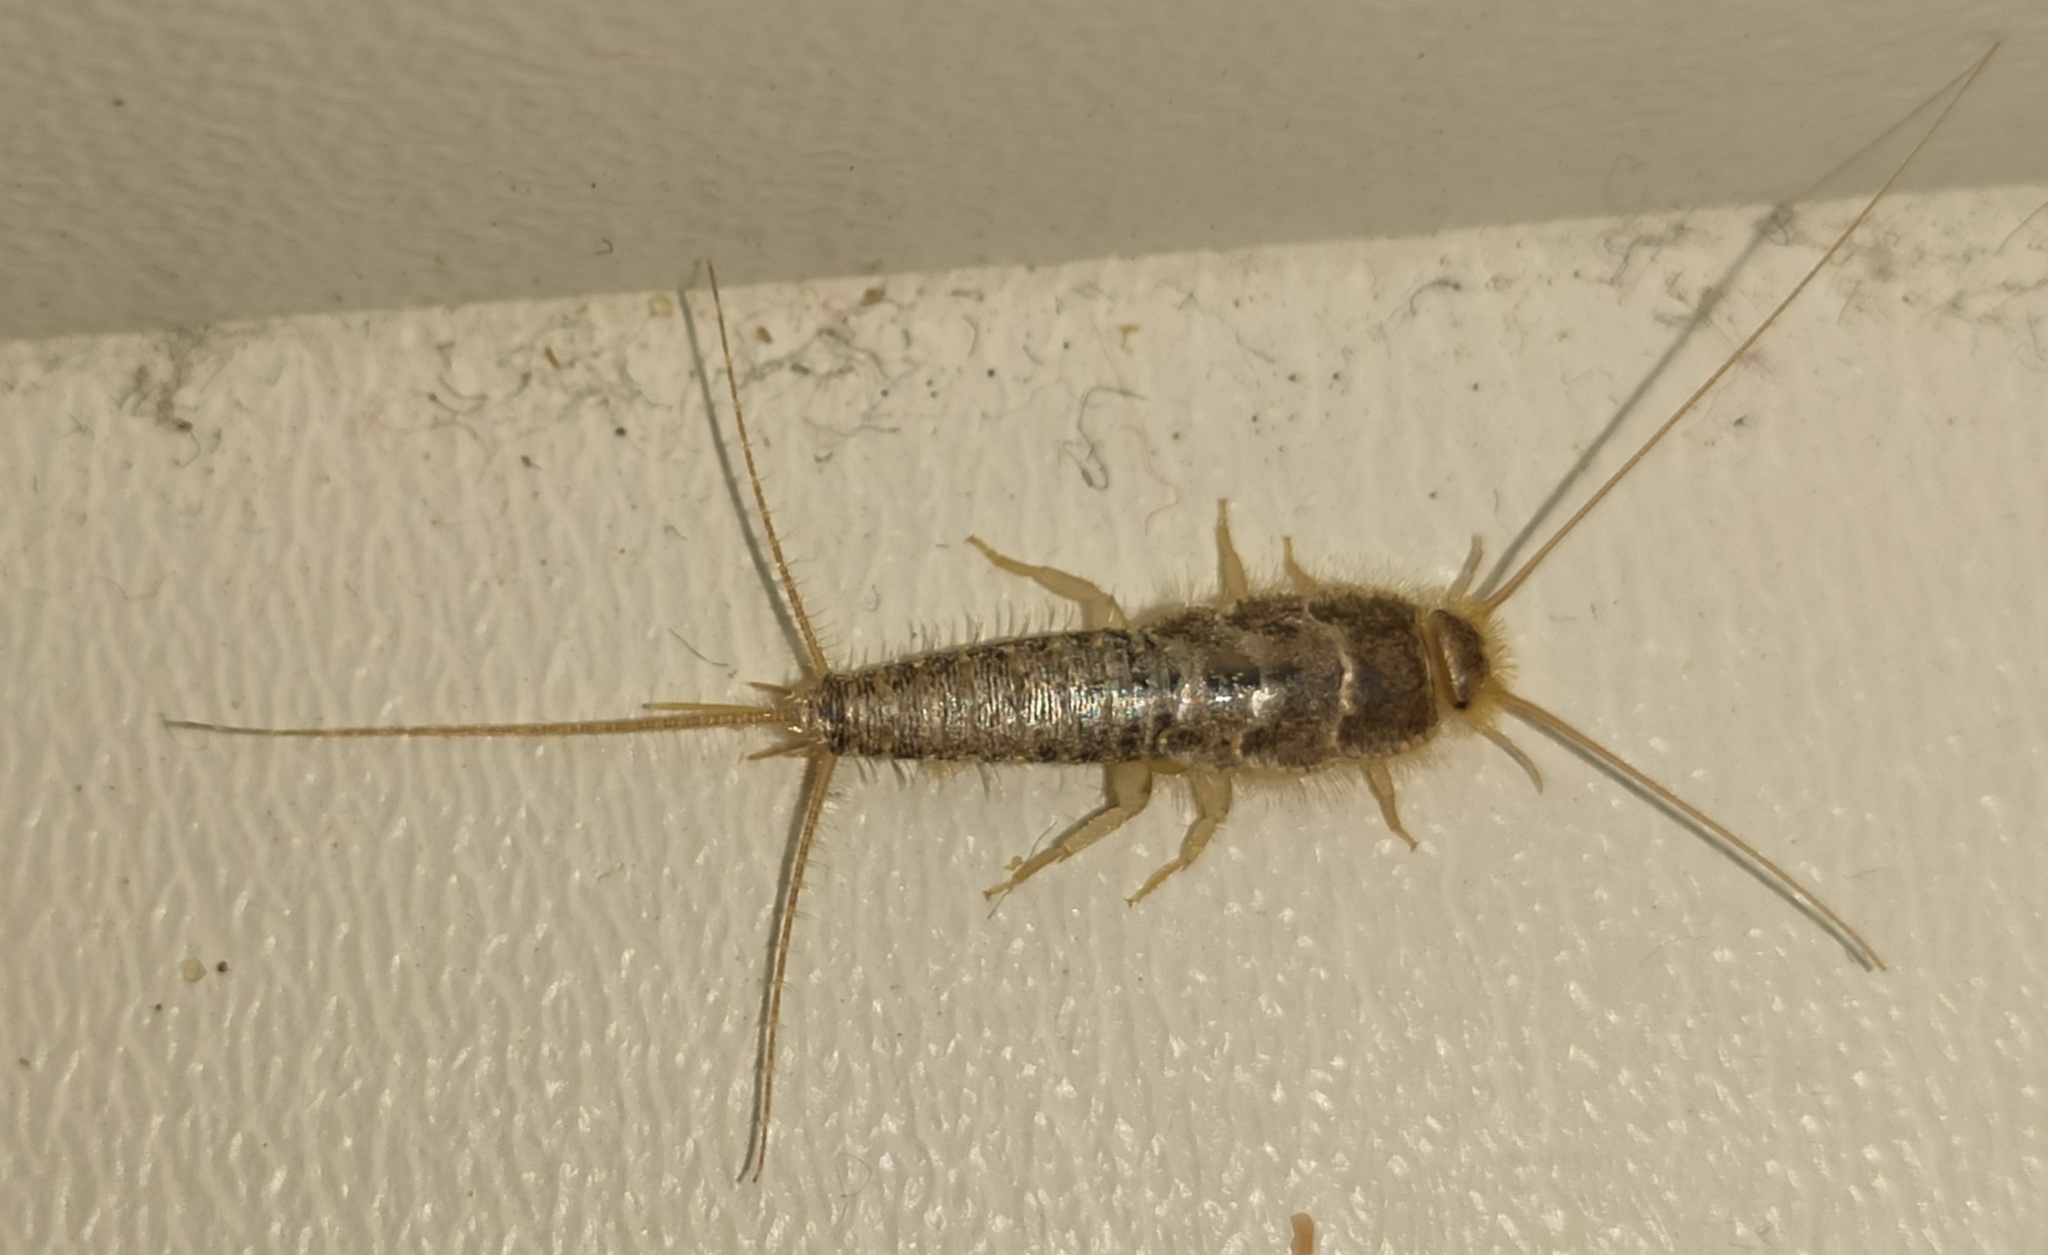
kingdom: Animalia
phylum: Arthropoda
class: Insecta
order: Zygentoma
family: Lepismatidae
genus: Ctenolepisma
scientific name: Ctenolepisma longicaudatum
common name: Silverfish
